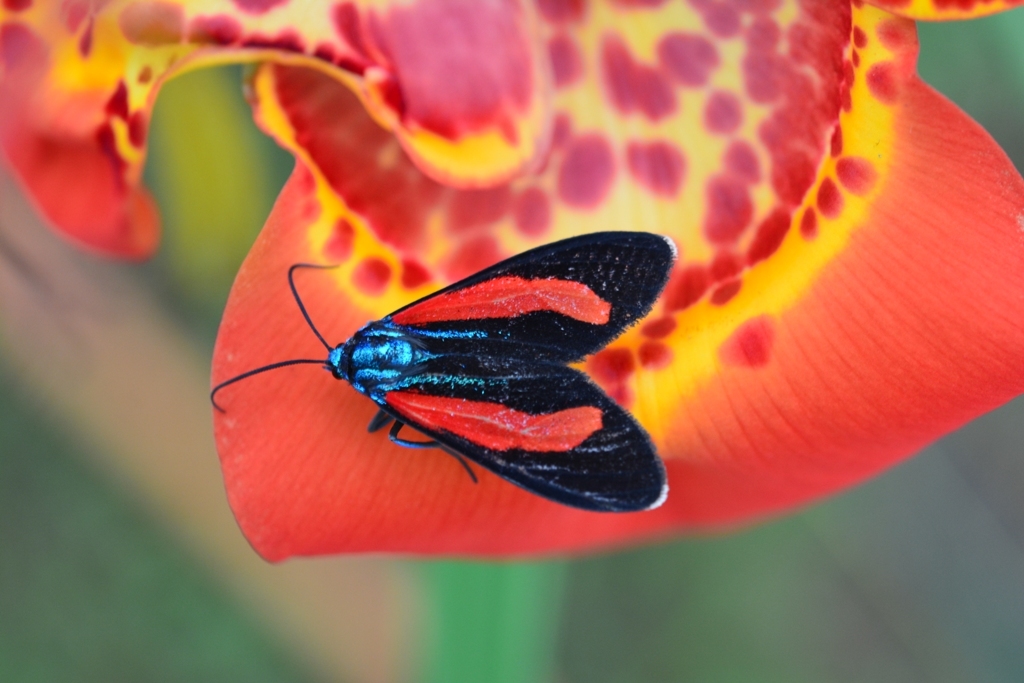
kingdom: Animalia
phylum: Arthropoda
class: Insecta
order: Lepidoptera
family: Erebidae
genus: Cyanopepla
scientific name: Cyanopepla bella
